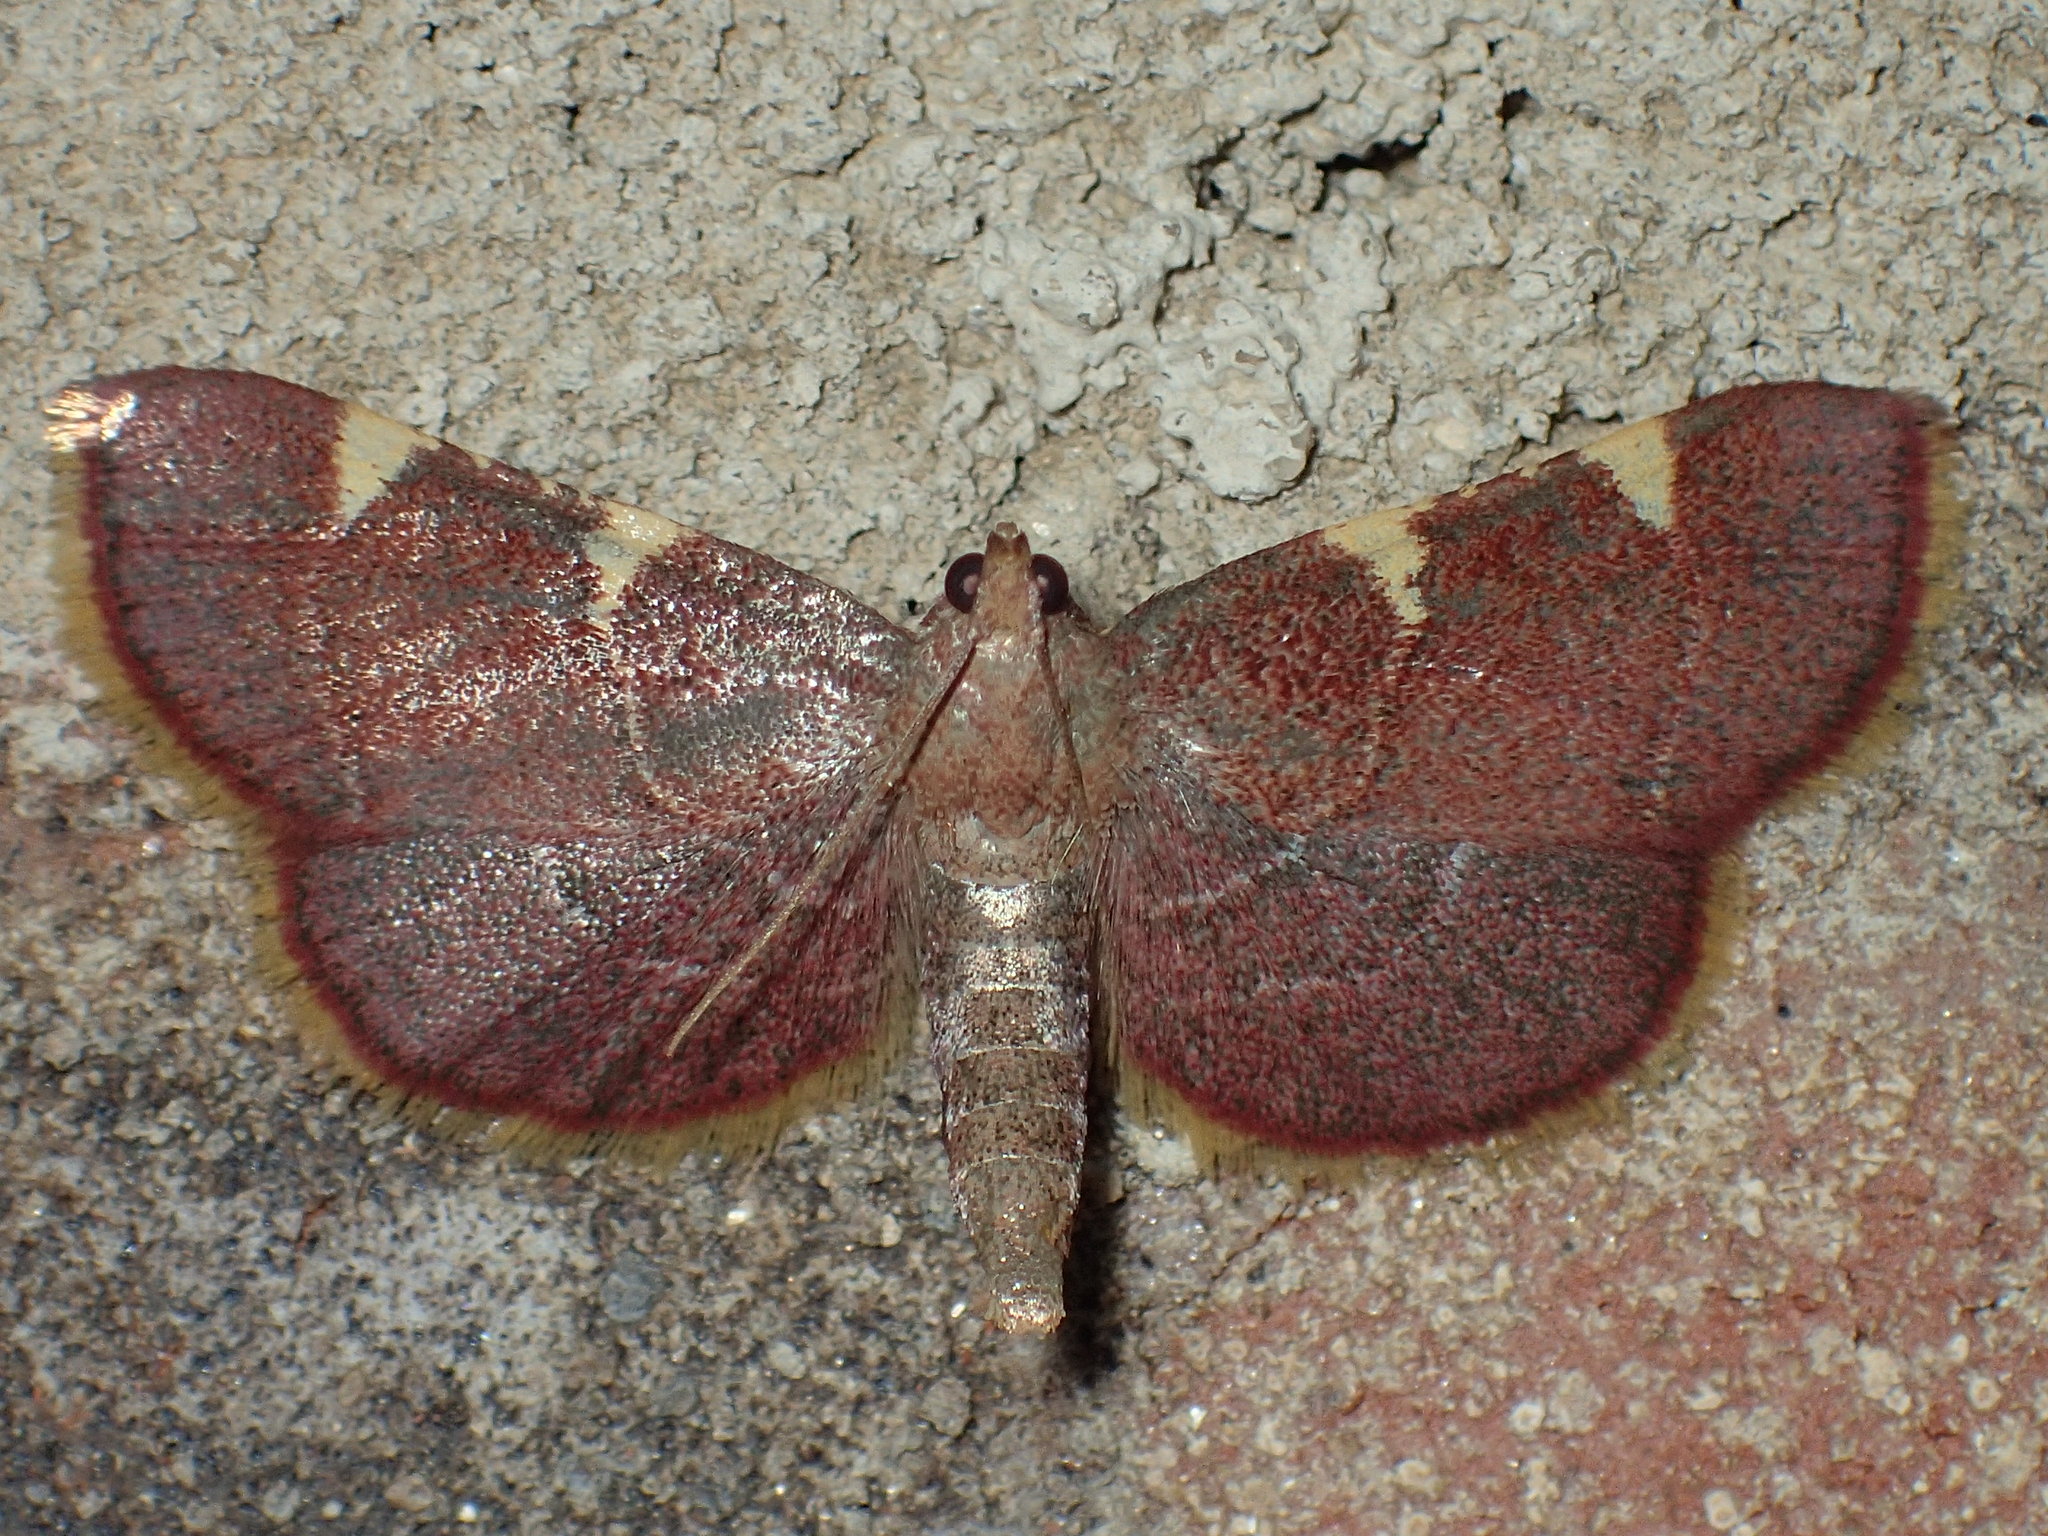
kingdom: Animalia
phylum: Arthropoda
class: Insecta
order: Lepidoptera
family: Pyralidae
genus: Hypsopygia
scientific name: Hypsopygia olinalis
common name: Yellow-fringed dolichomia moth
